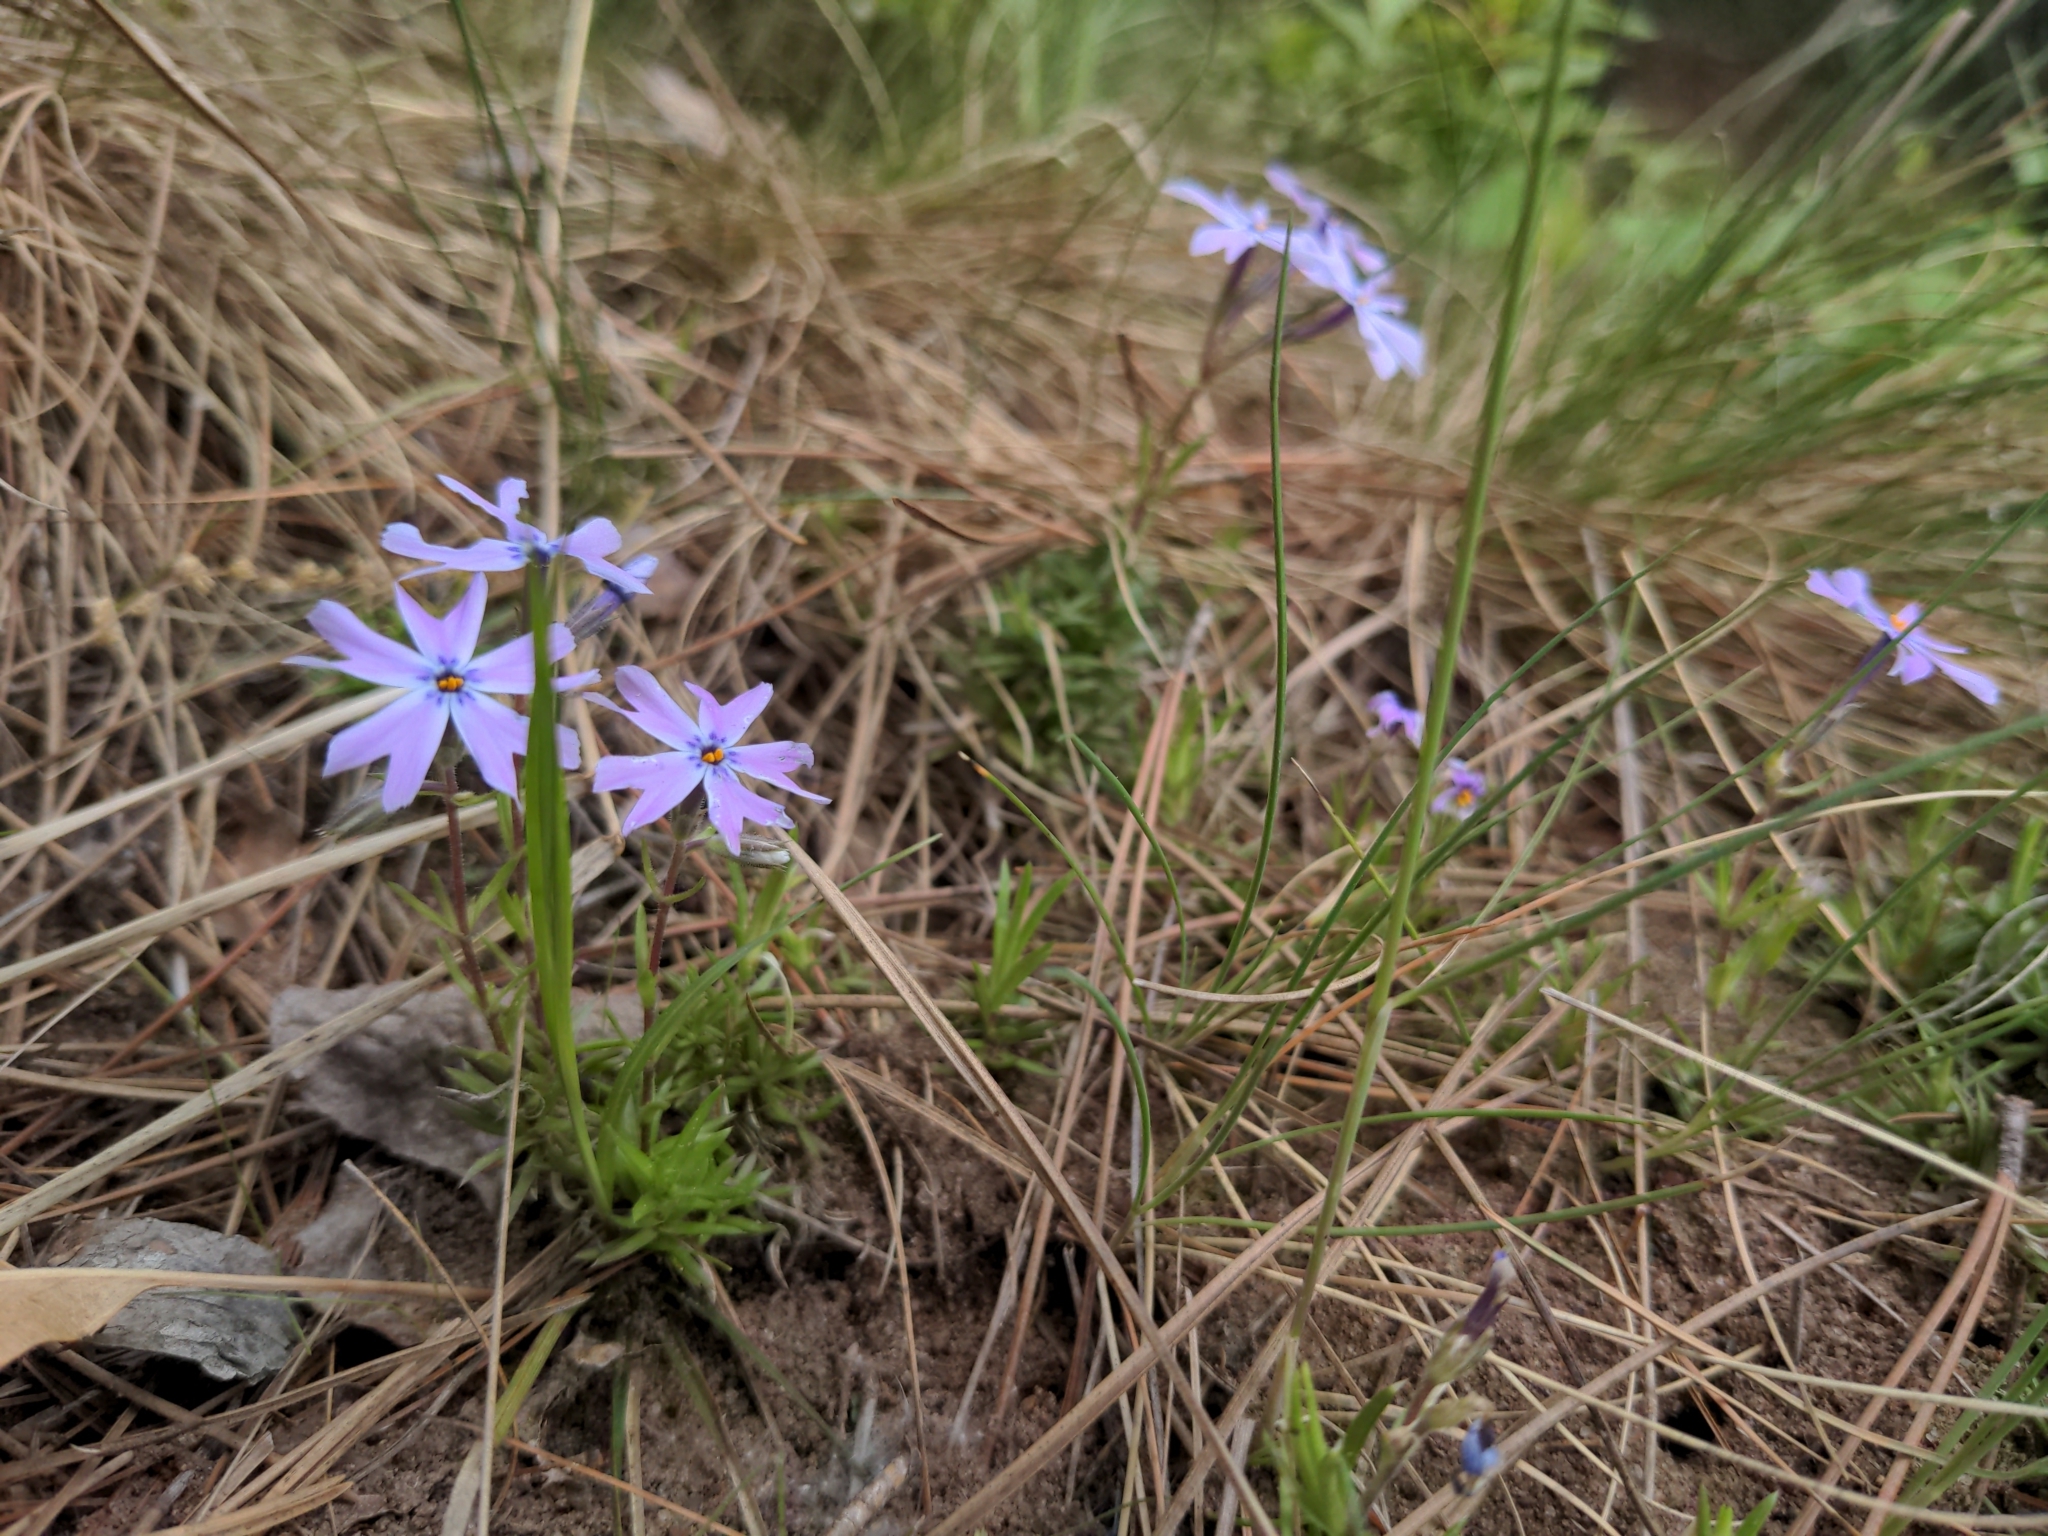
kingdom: Plantae
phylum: Tracheophyta
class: Magnoliopsida
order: Ericales
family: Polemoniaceae
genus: Phlox
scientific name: Phlox subulata
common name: Moss phlox
